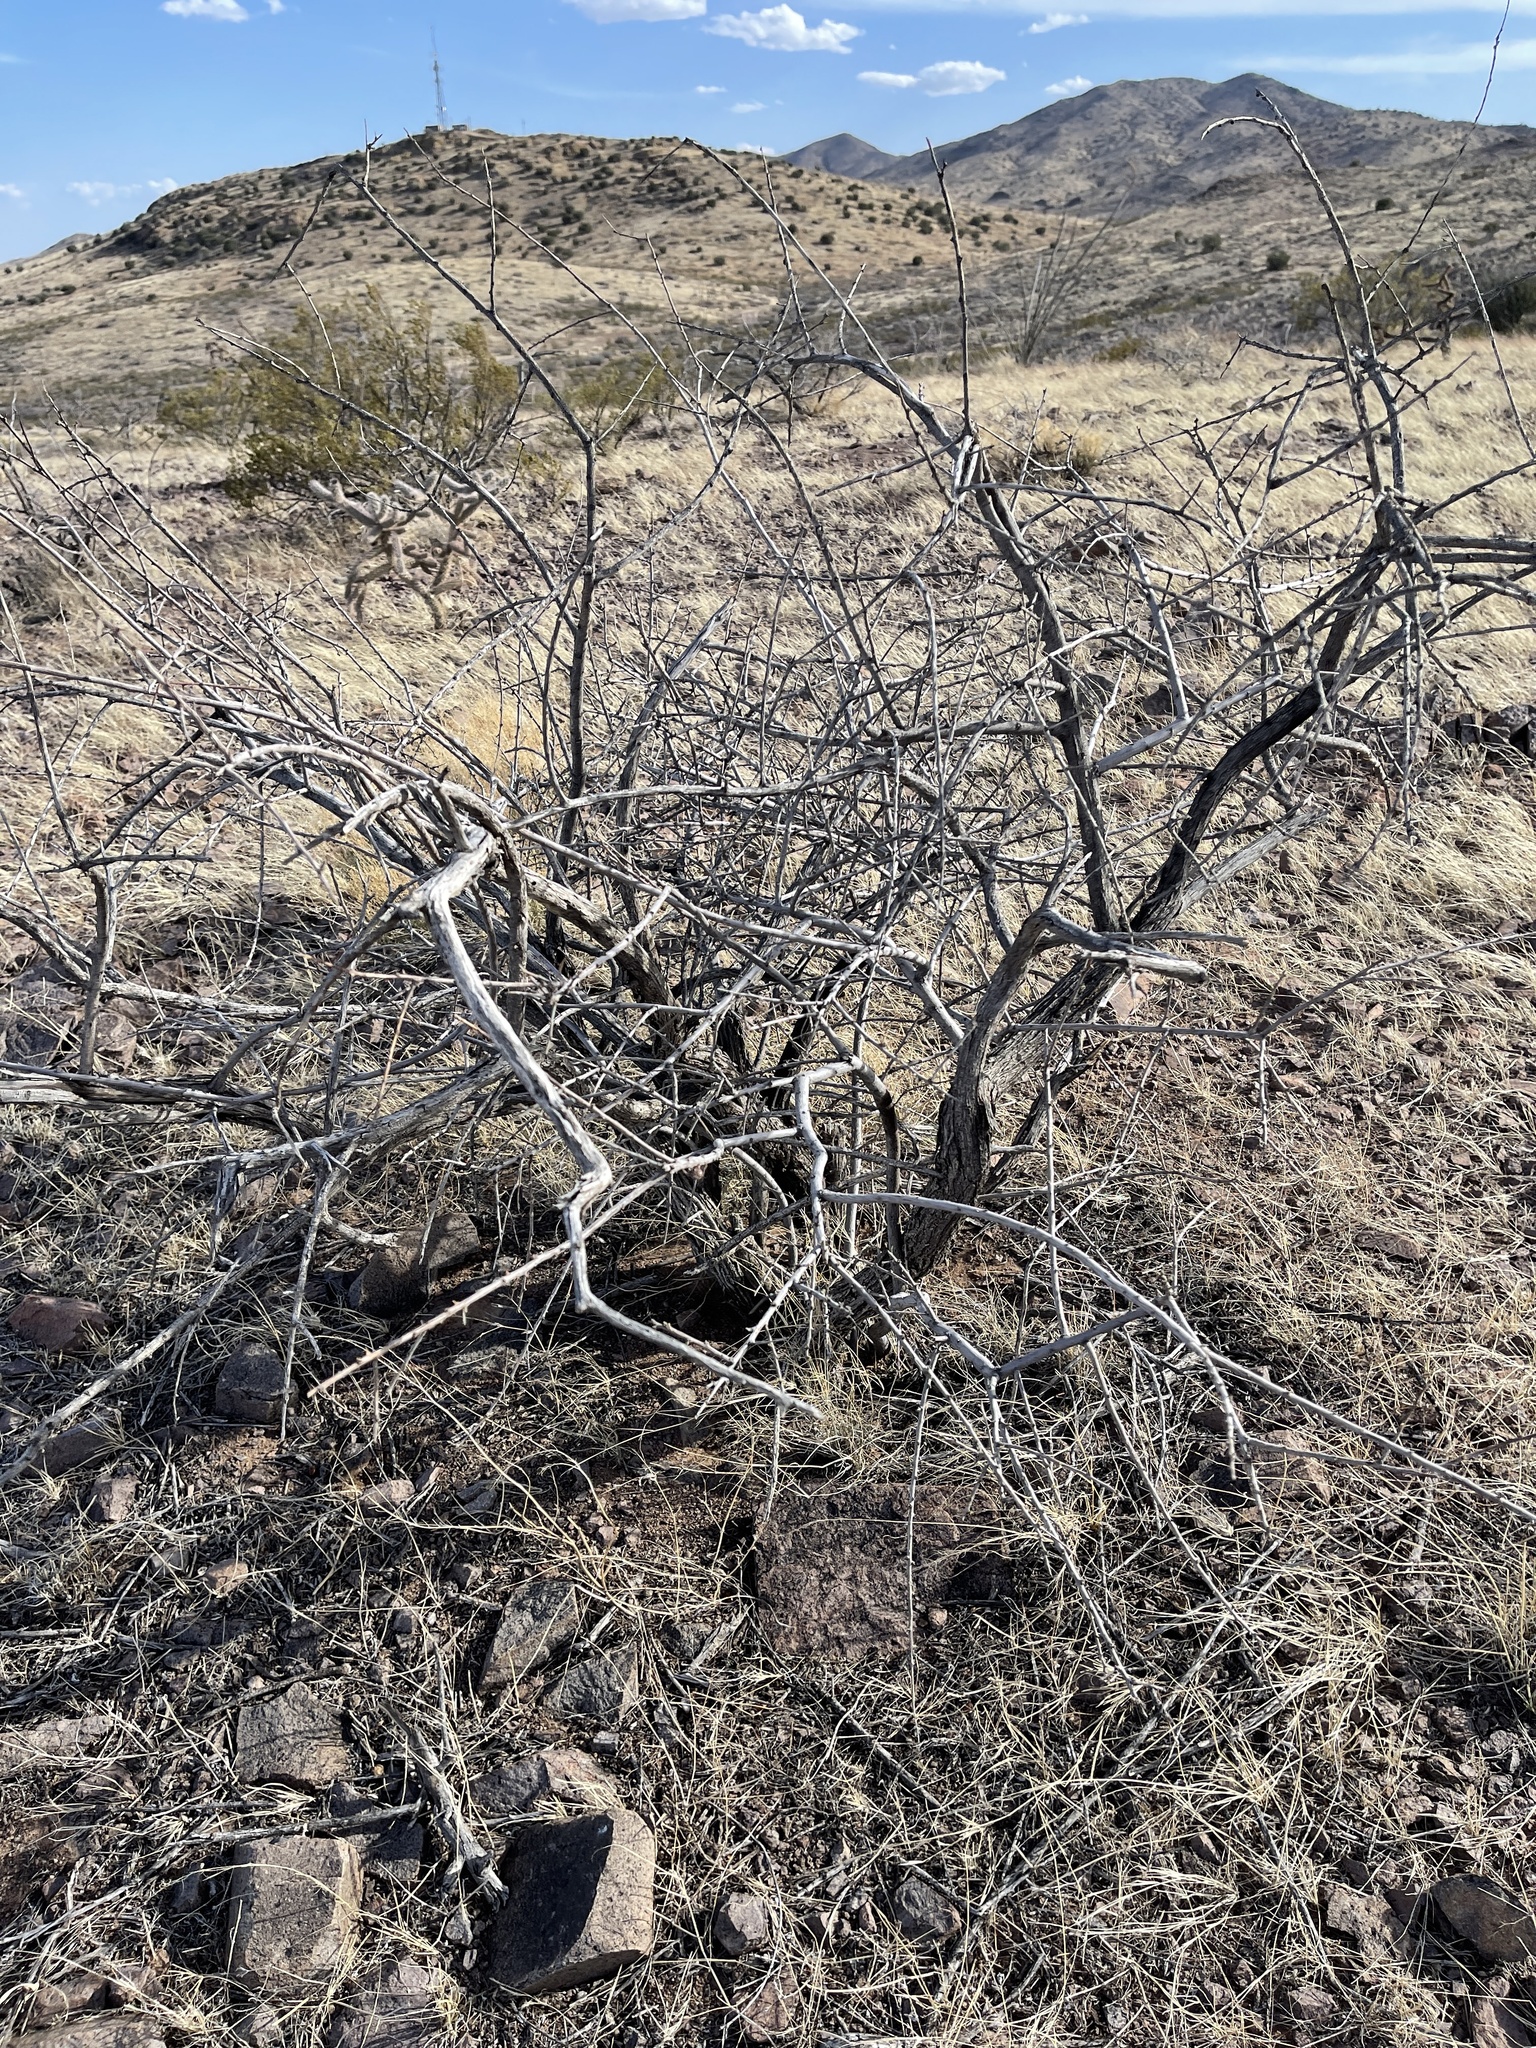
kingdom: Plantae
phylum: Tracheophyta
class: Magnoliopsida
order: Fabales
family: Fabaceae
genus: Vachellia
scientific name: Vachellia constricta
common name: Mescat acacia
